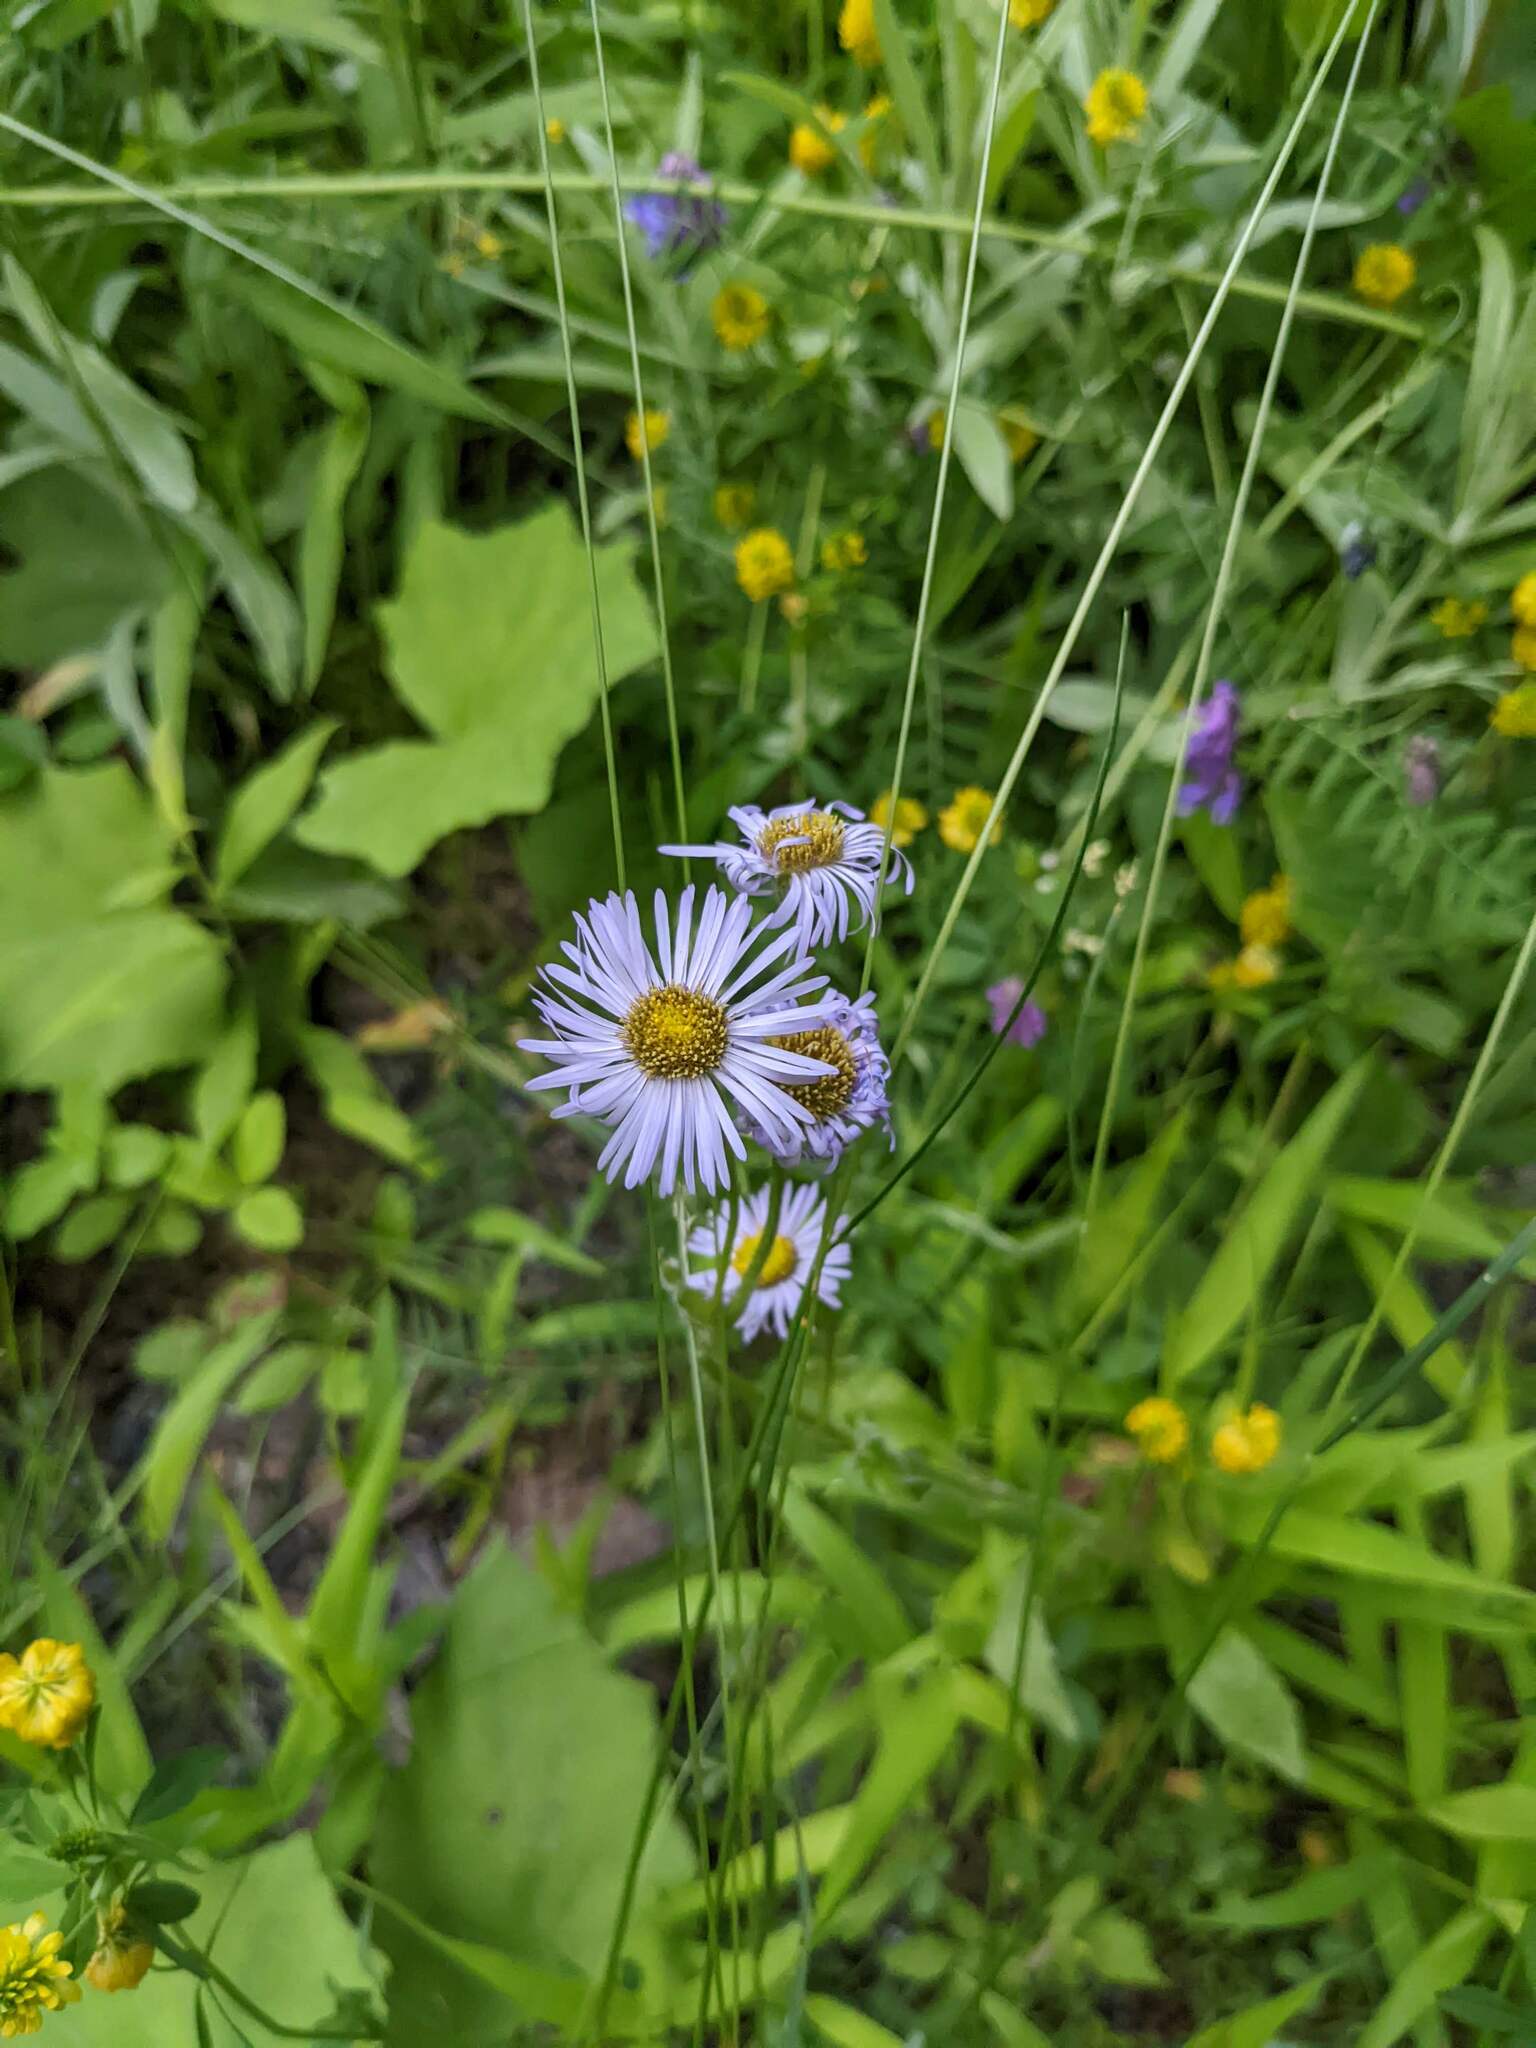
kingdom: Plantae
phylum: Tracheophyta
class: Magnoliopsida
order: Asterales
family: Asteraceae
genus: Erigeron
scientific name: Erigeron pulchellus
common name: Hairy fleabane
